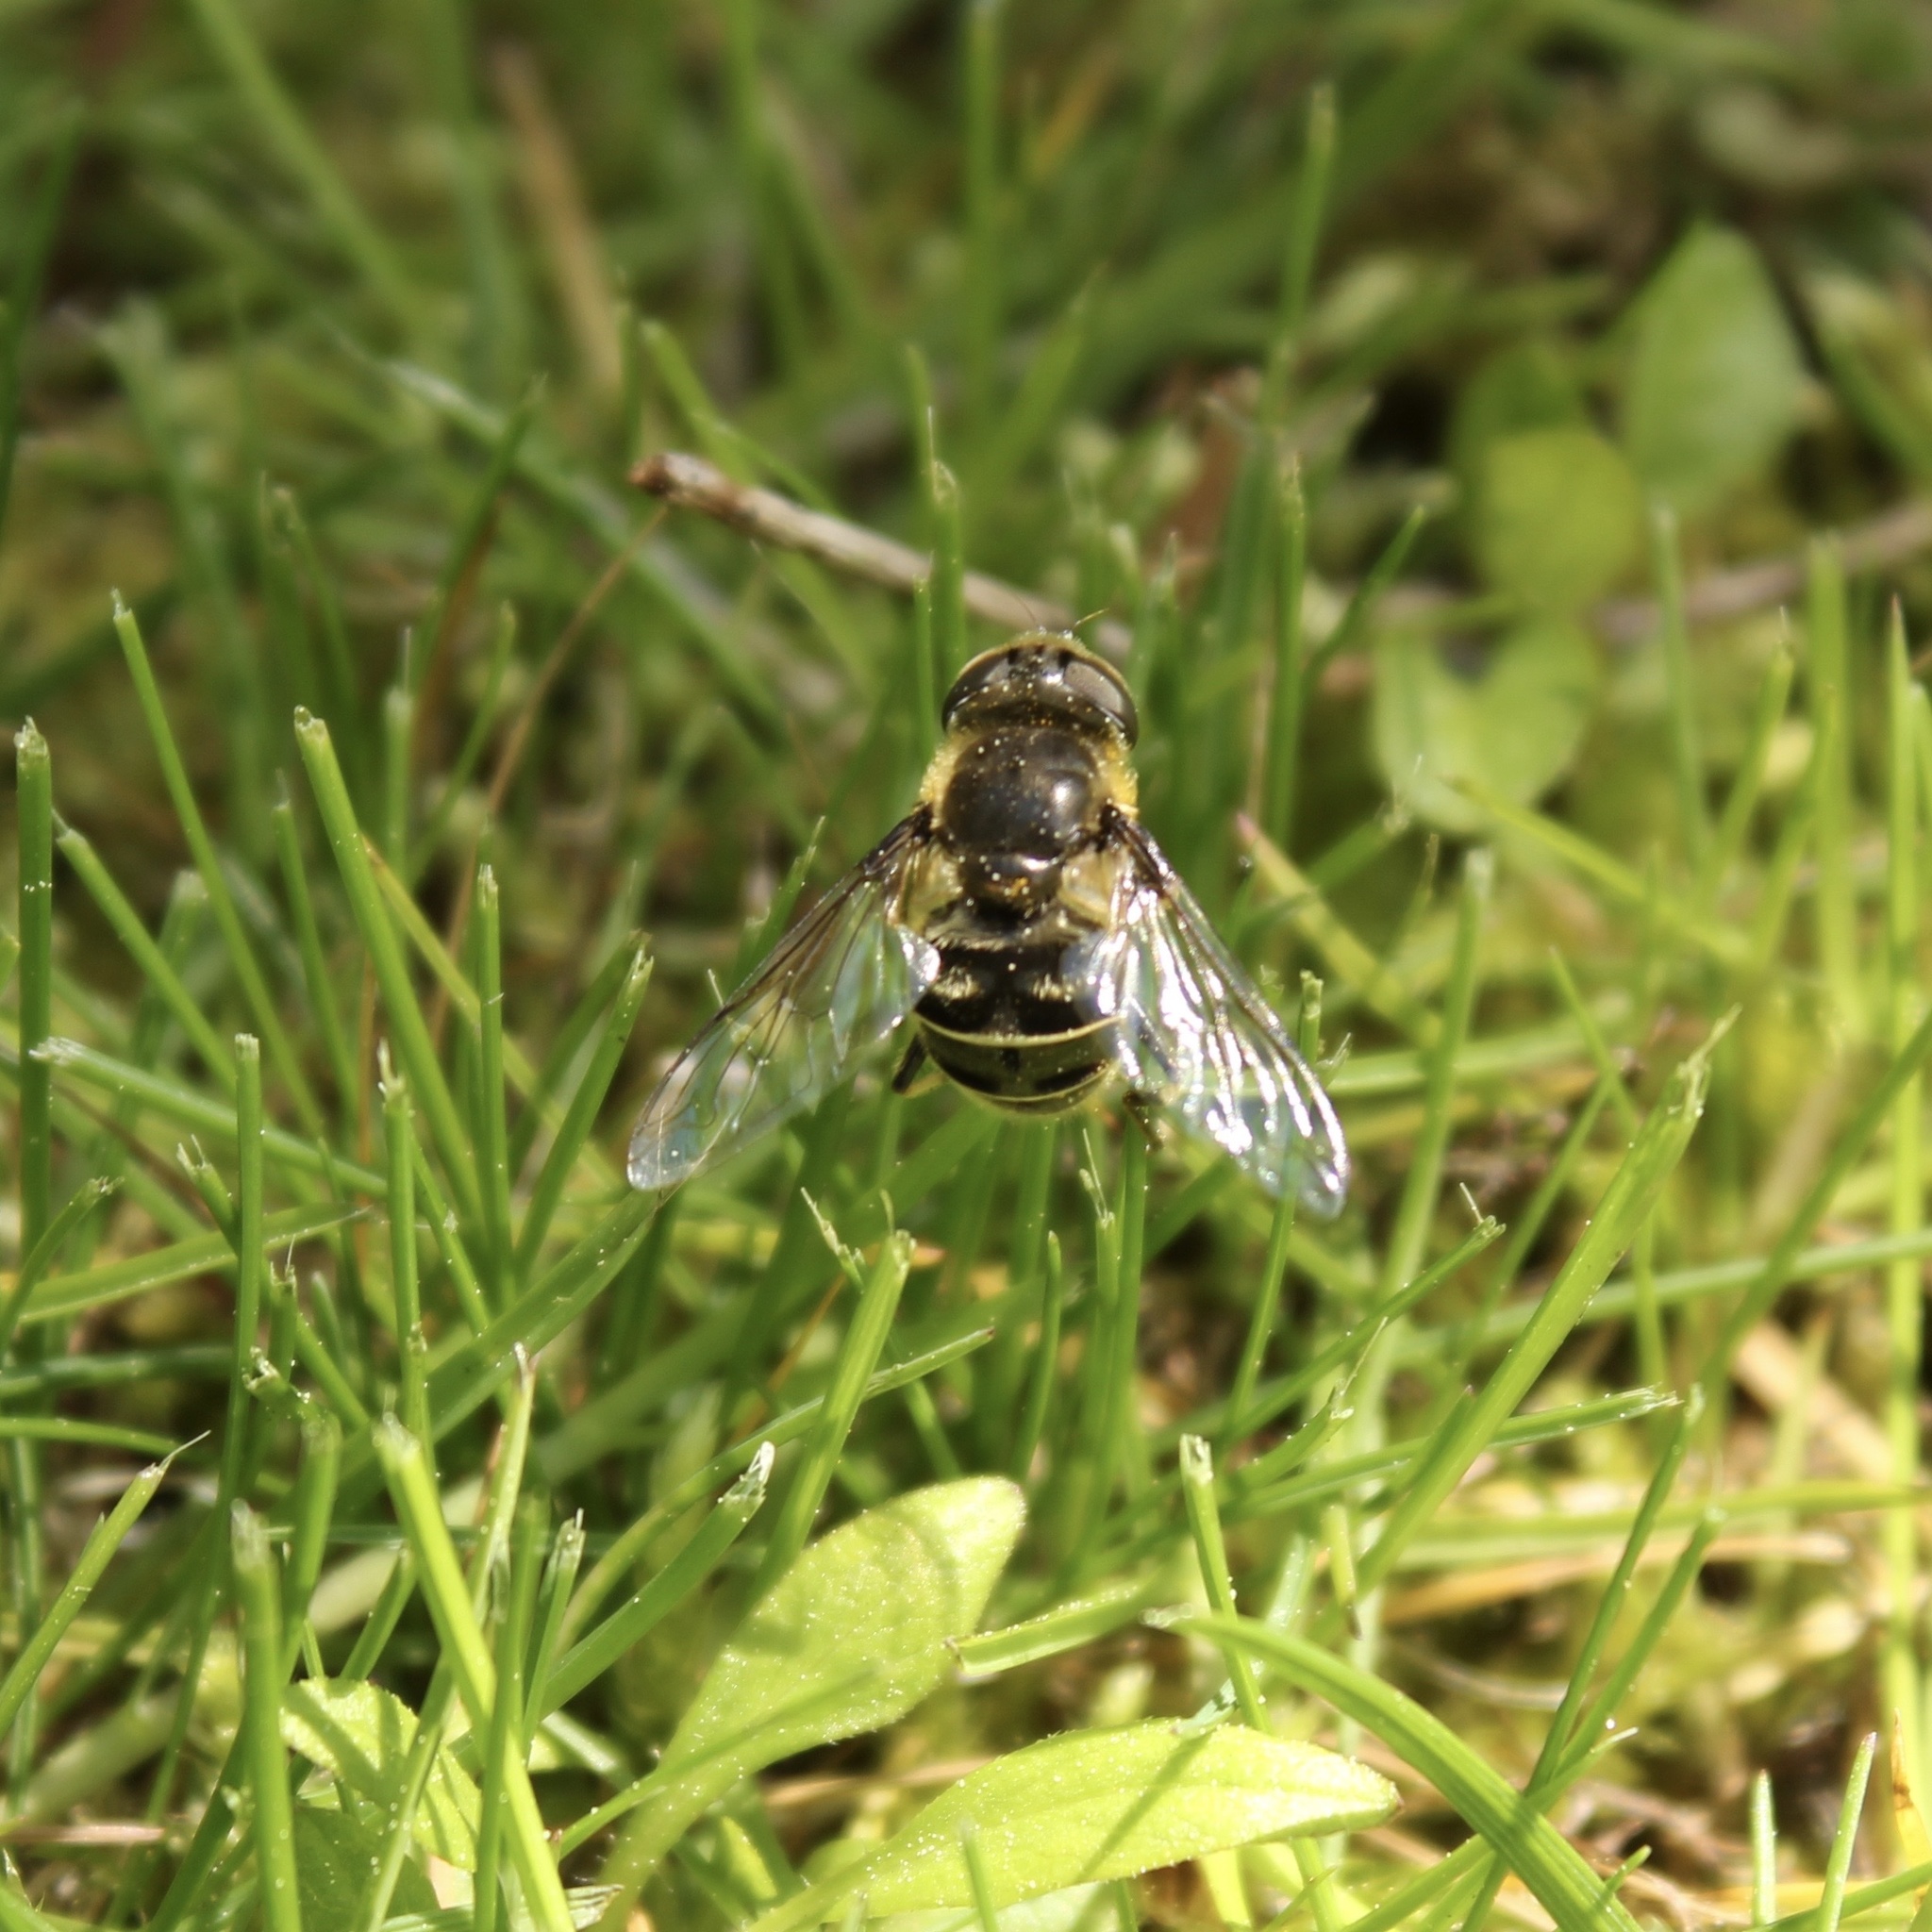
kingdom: Animalia
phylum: Arthropoda
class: Insecta
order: Diptera
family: Syrphidae
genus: Eristalis
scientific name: Eristalis dimidiata
